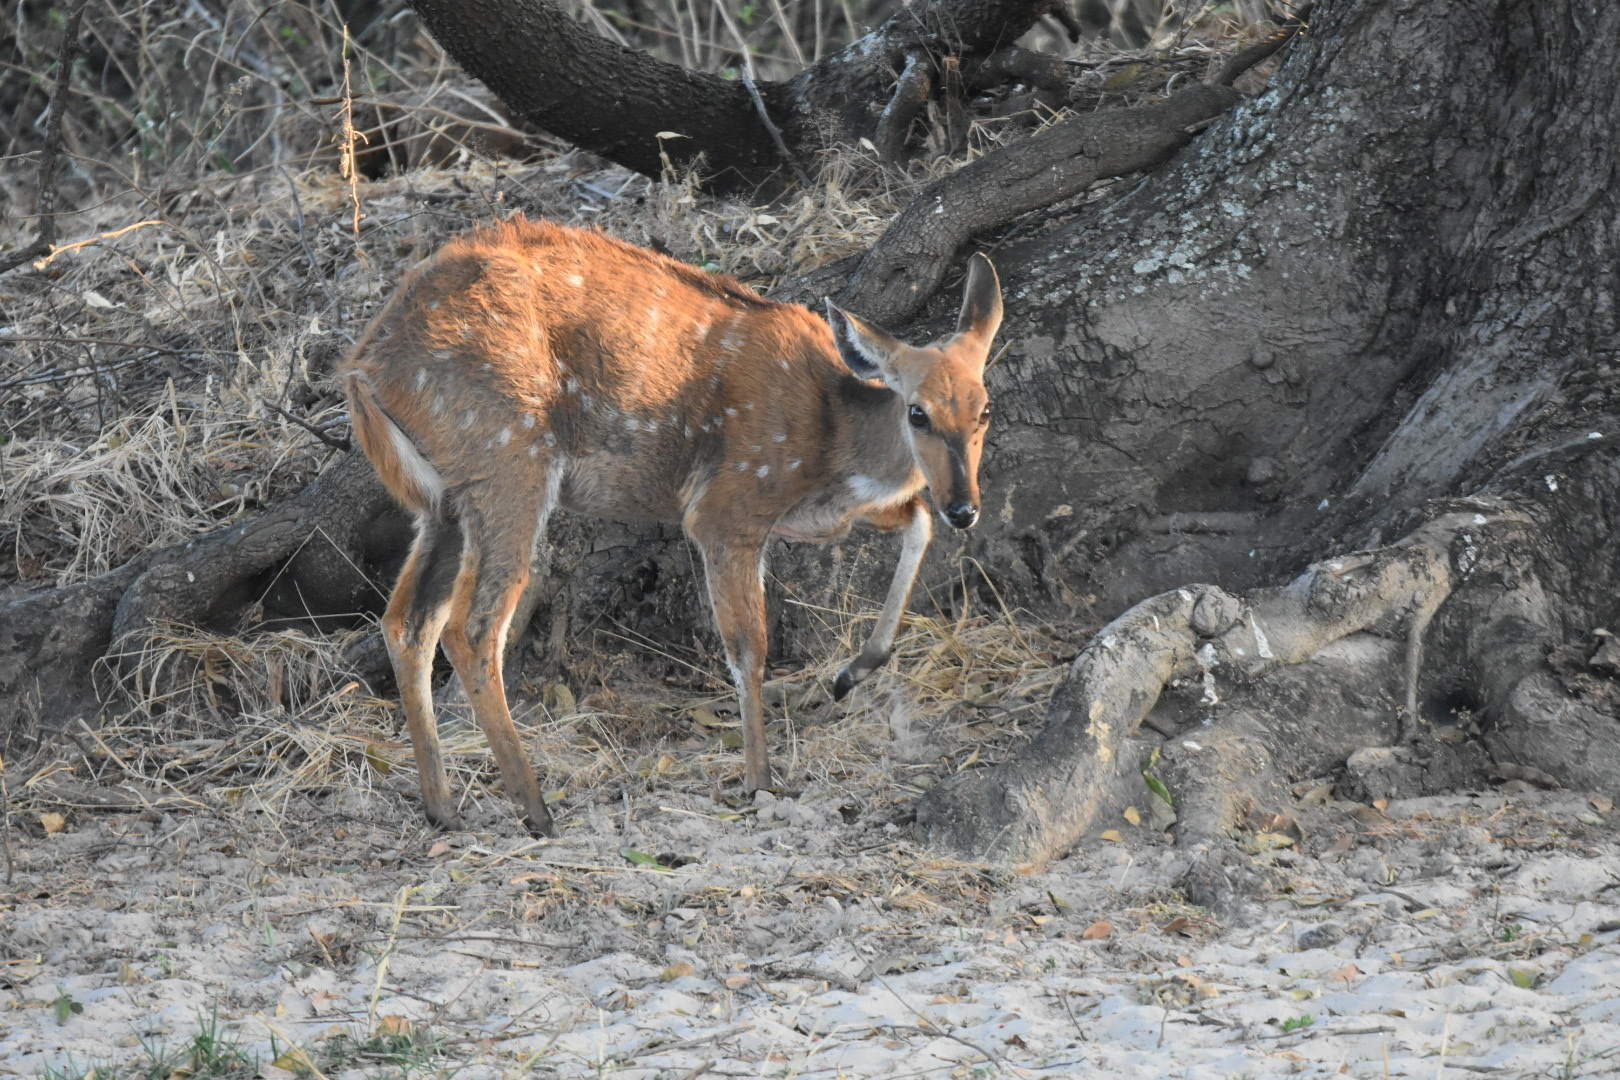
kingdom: Animalia
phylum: Chordata
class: Mammalia
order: Artiodactyla
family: Bovidae
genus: Tragelaphus
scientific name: Tragelaphus scriptus
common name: Bushbuck
